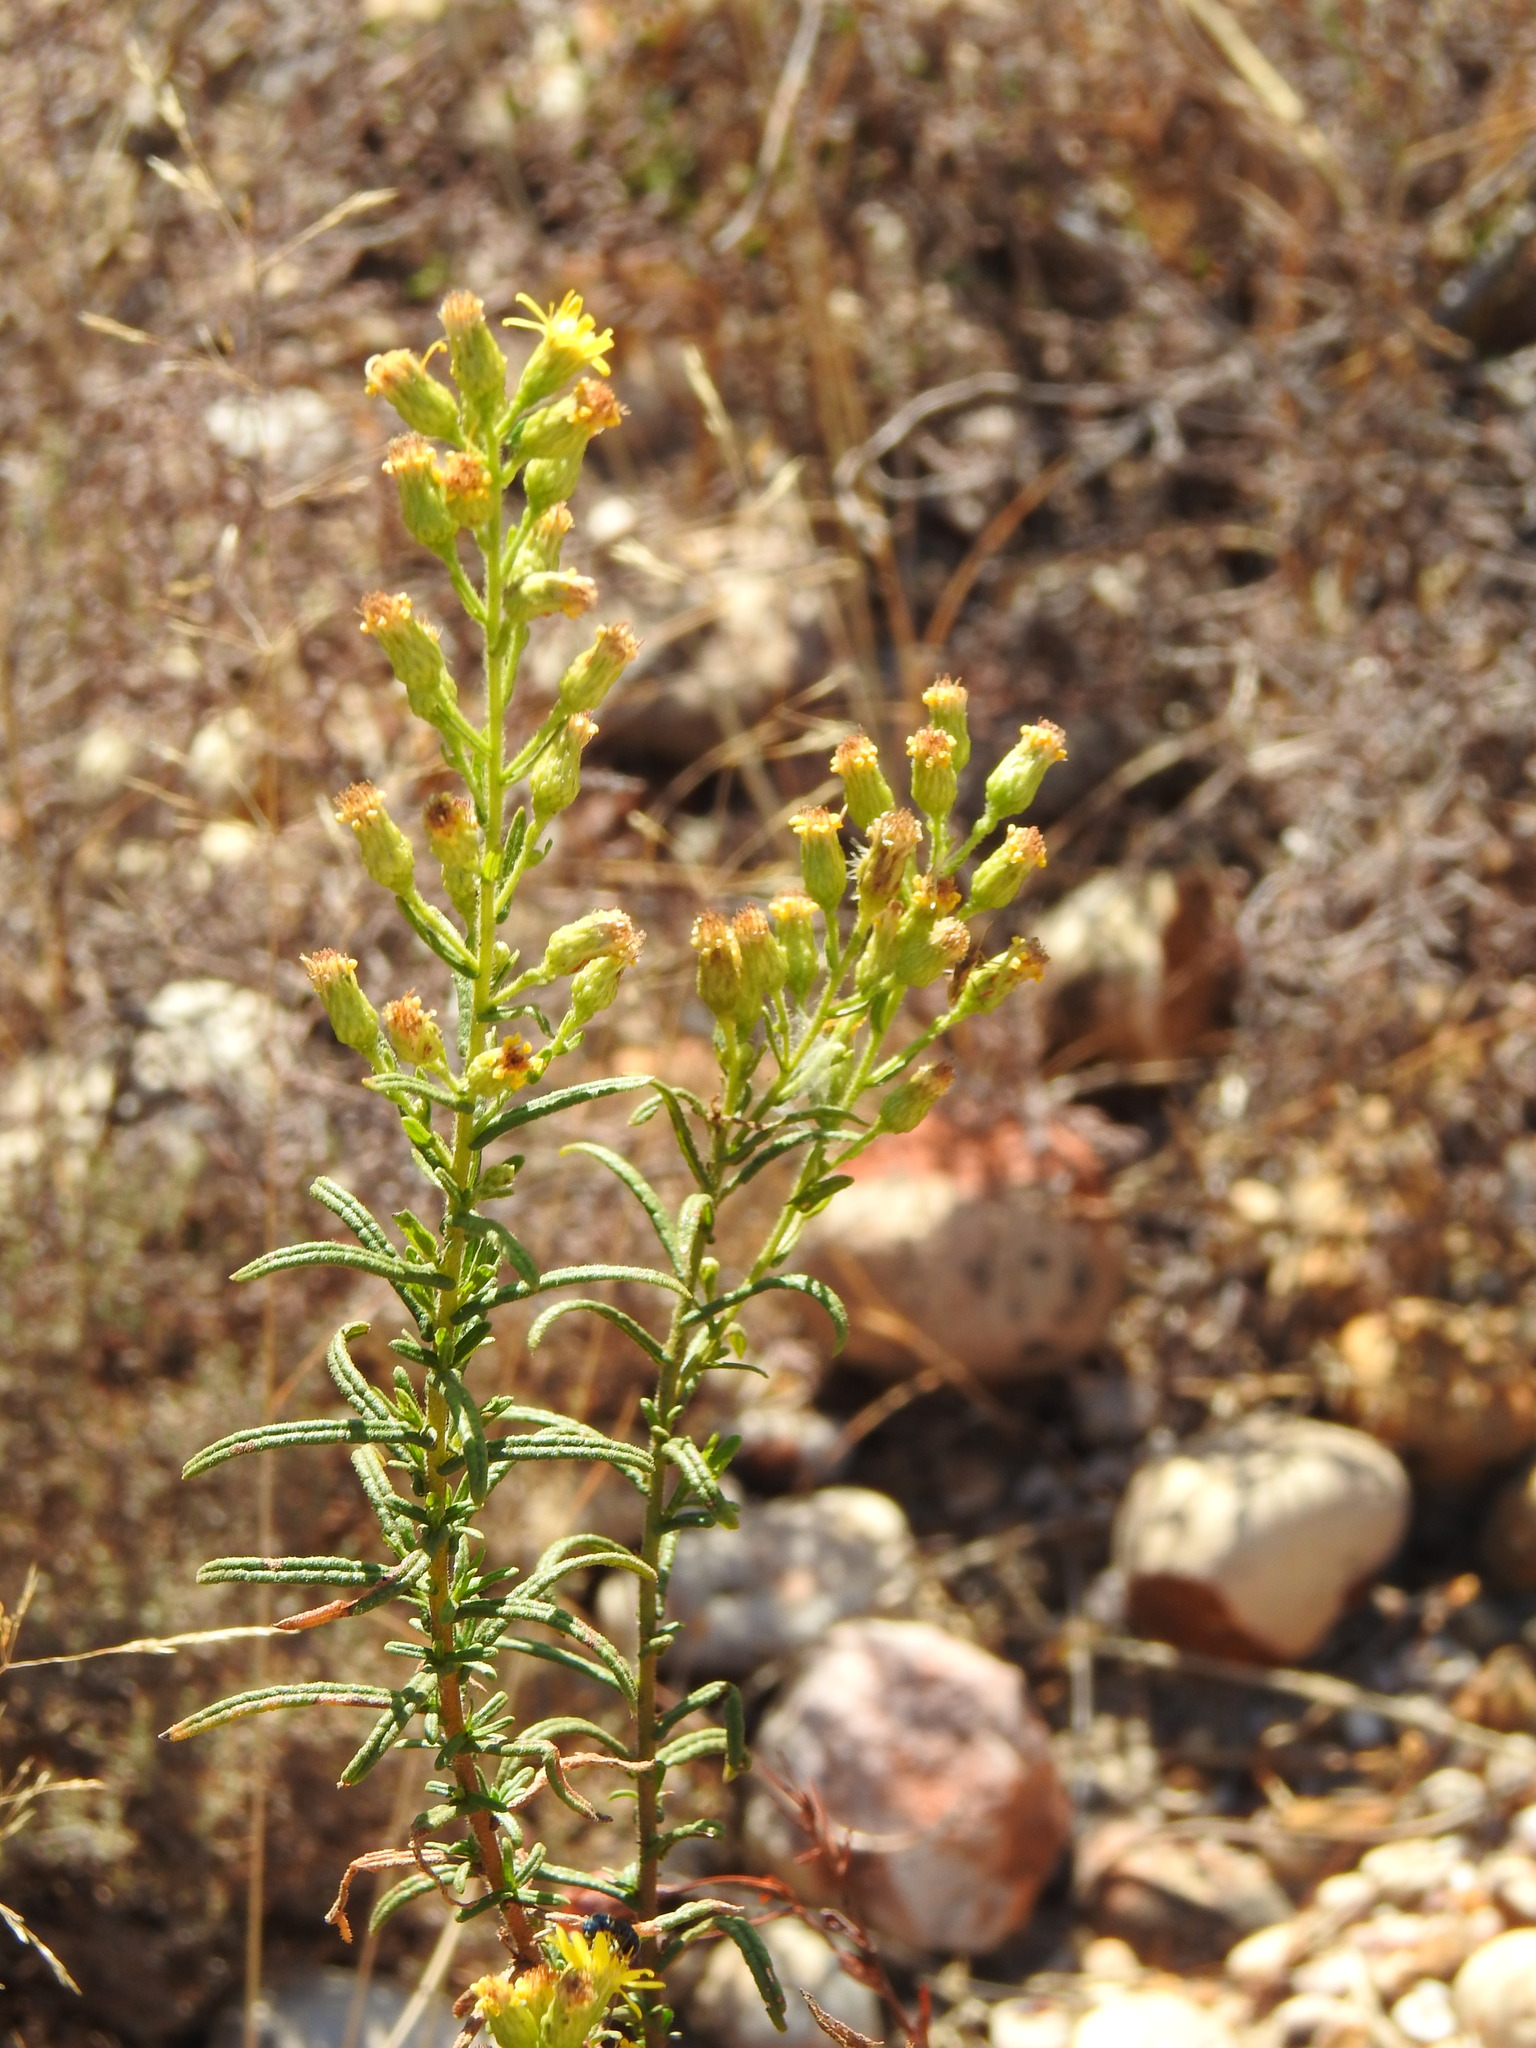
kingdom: Plantae
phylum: Tracheophyta
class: Magnoliopsida
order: Asterales
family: Asteraceae
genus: Dittrichia
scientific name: Dittrichia viscosa
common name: Woody fleabane
